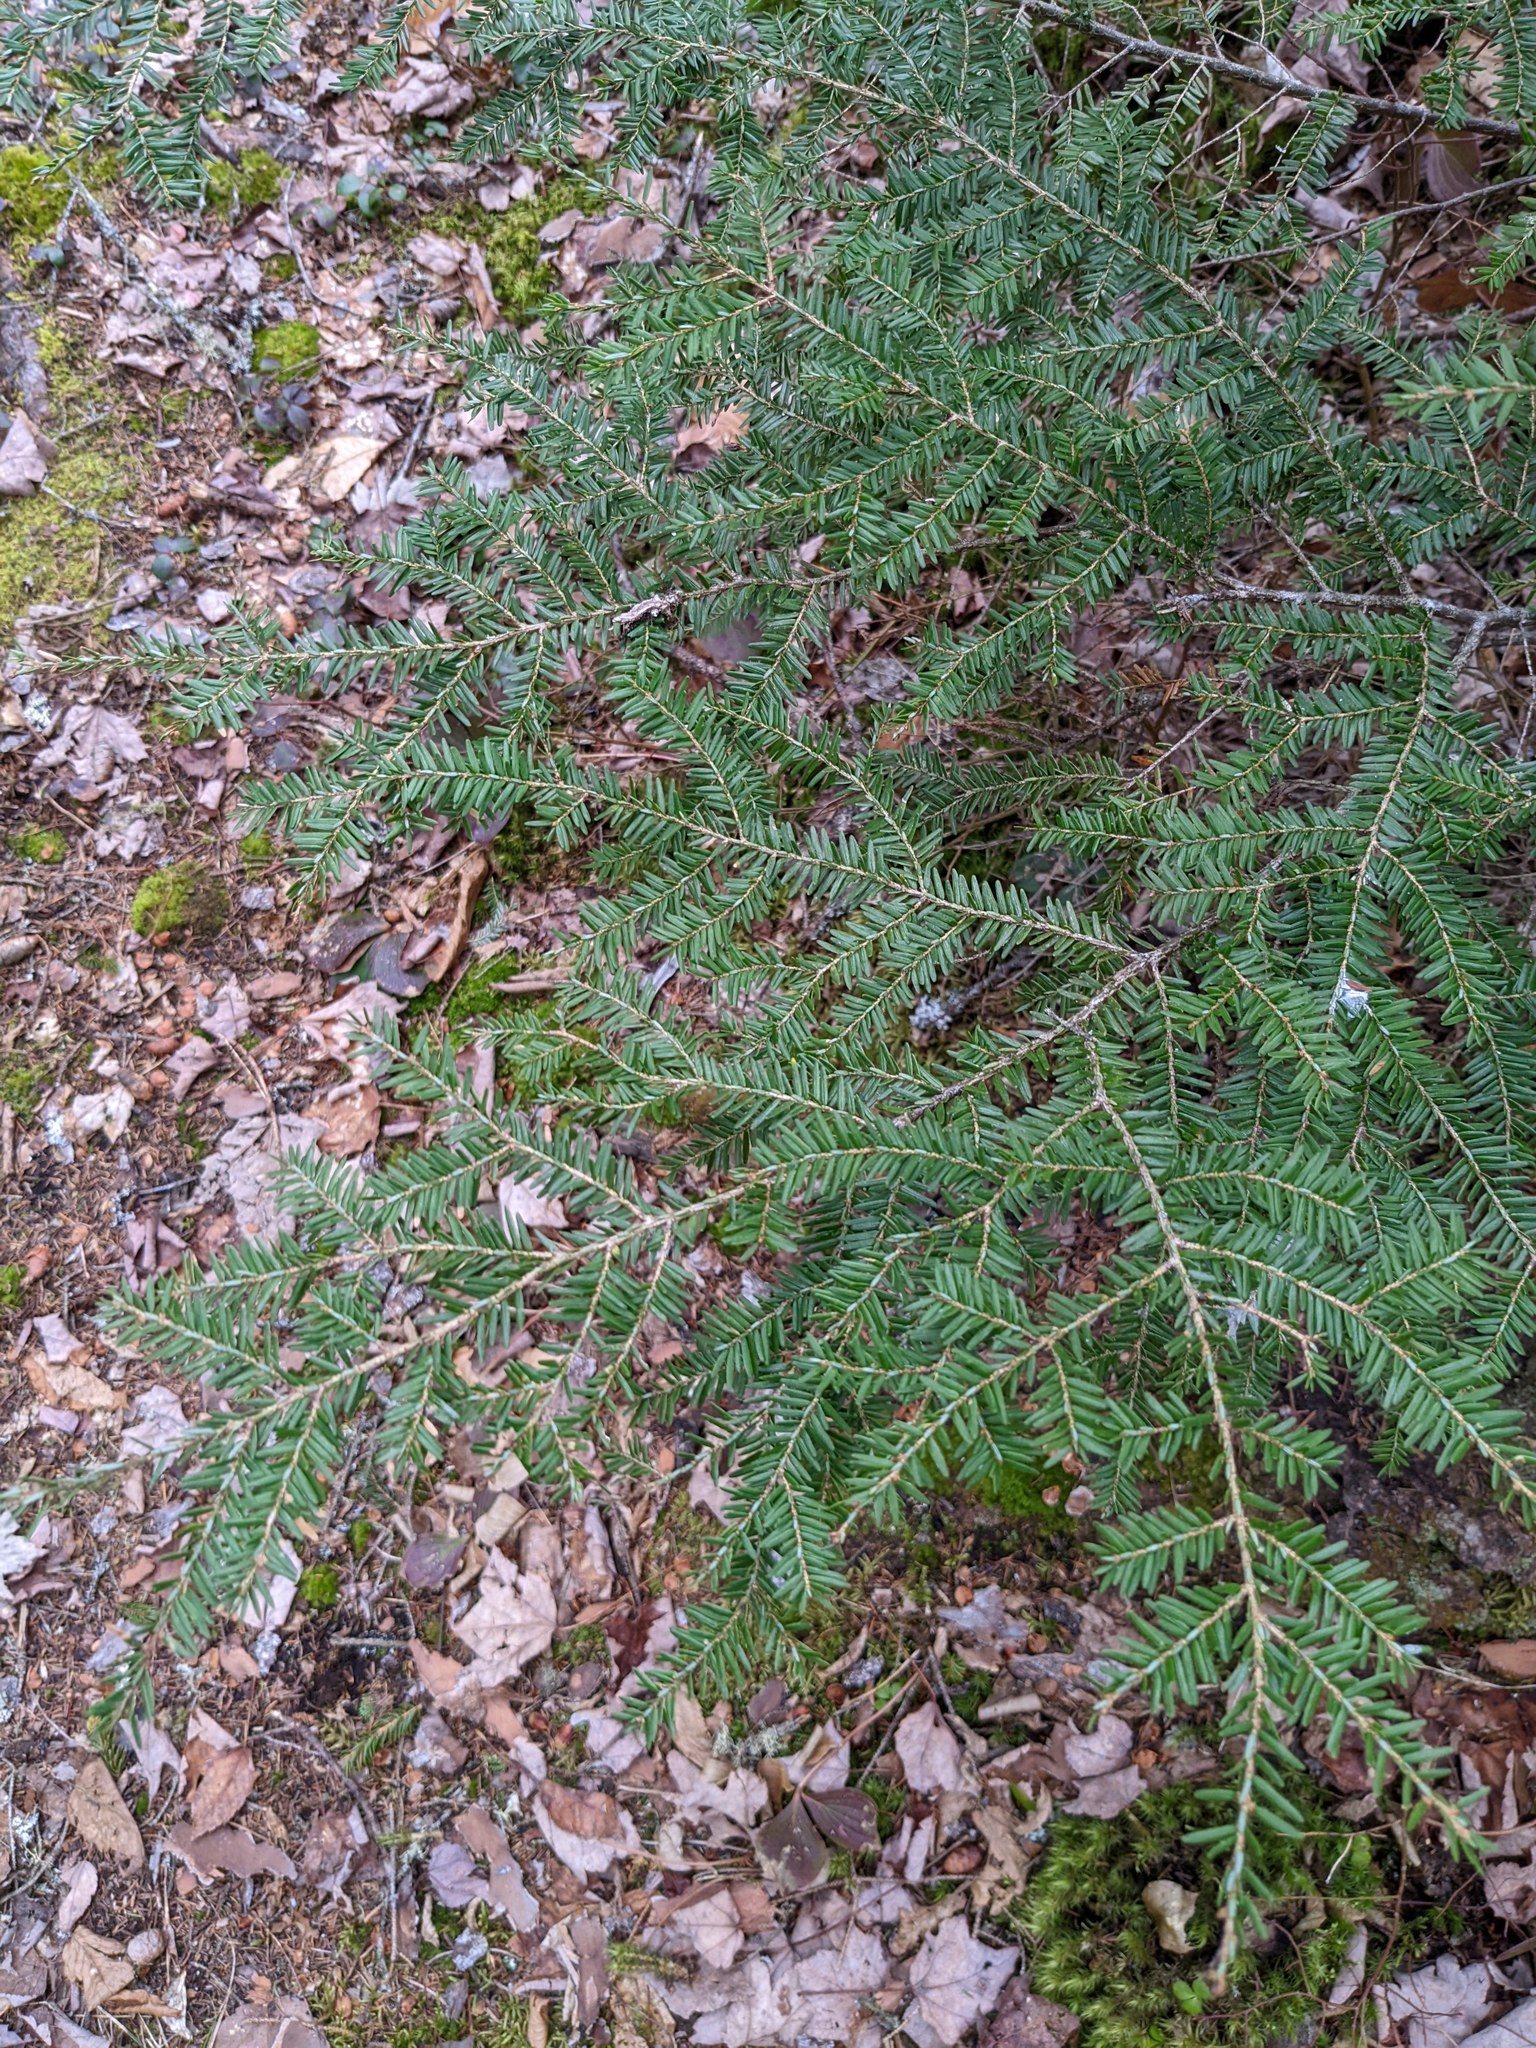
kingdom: Plantae
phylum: Tracheophyta
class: Pinopsida
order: Pinales
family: Pinaceae
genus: Tsuga
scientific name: Tsuga canadensis
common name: Eastern hemlock
